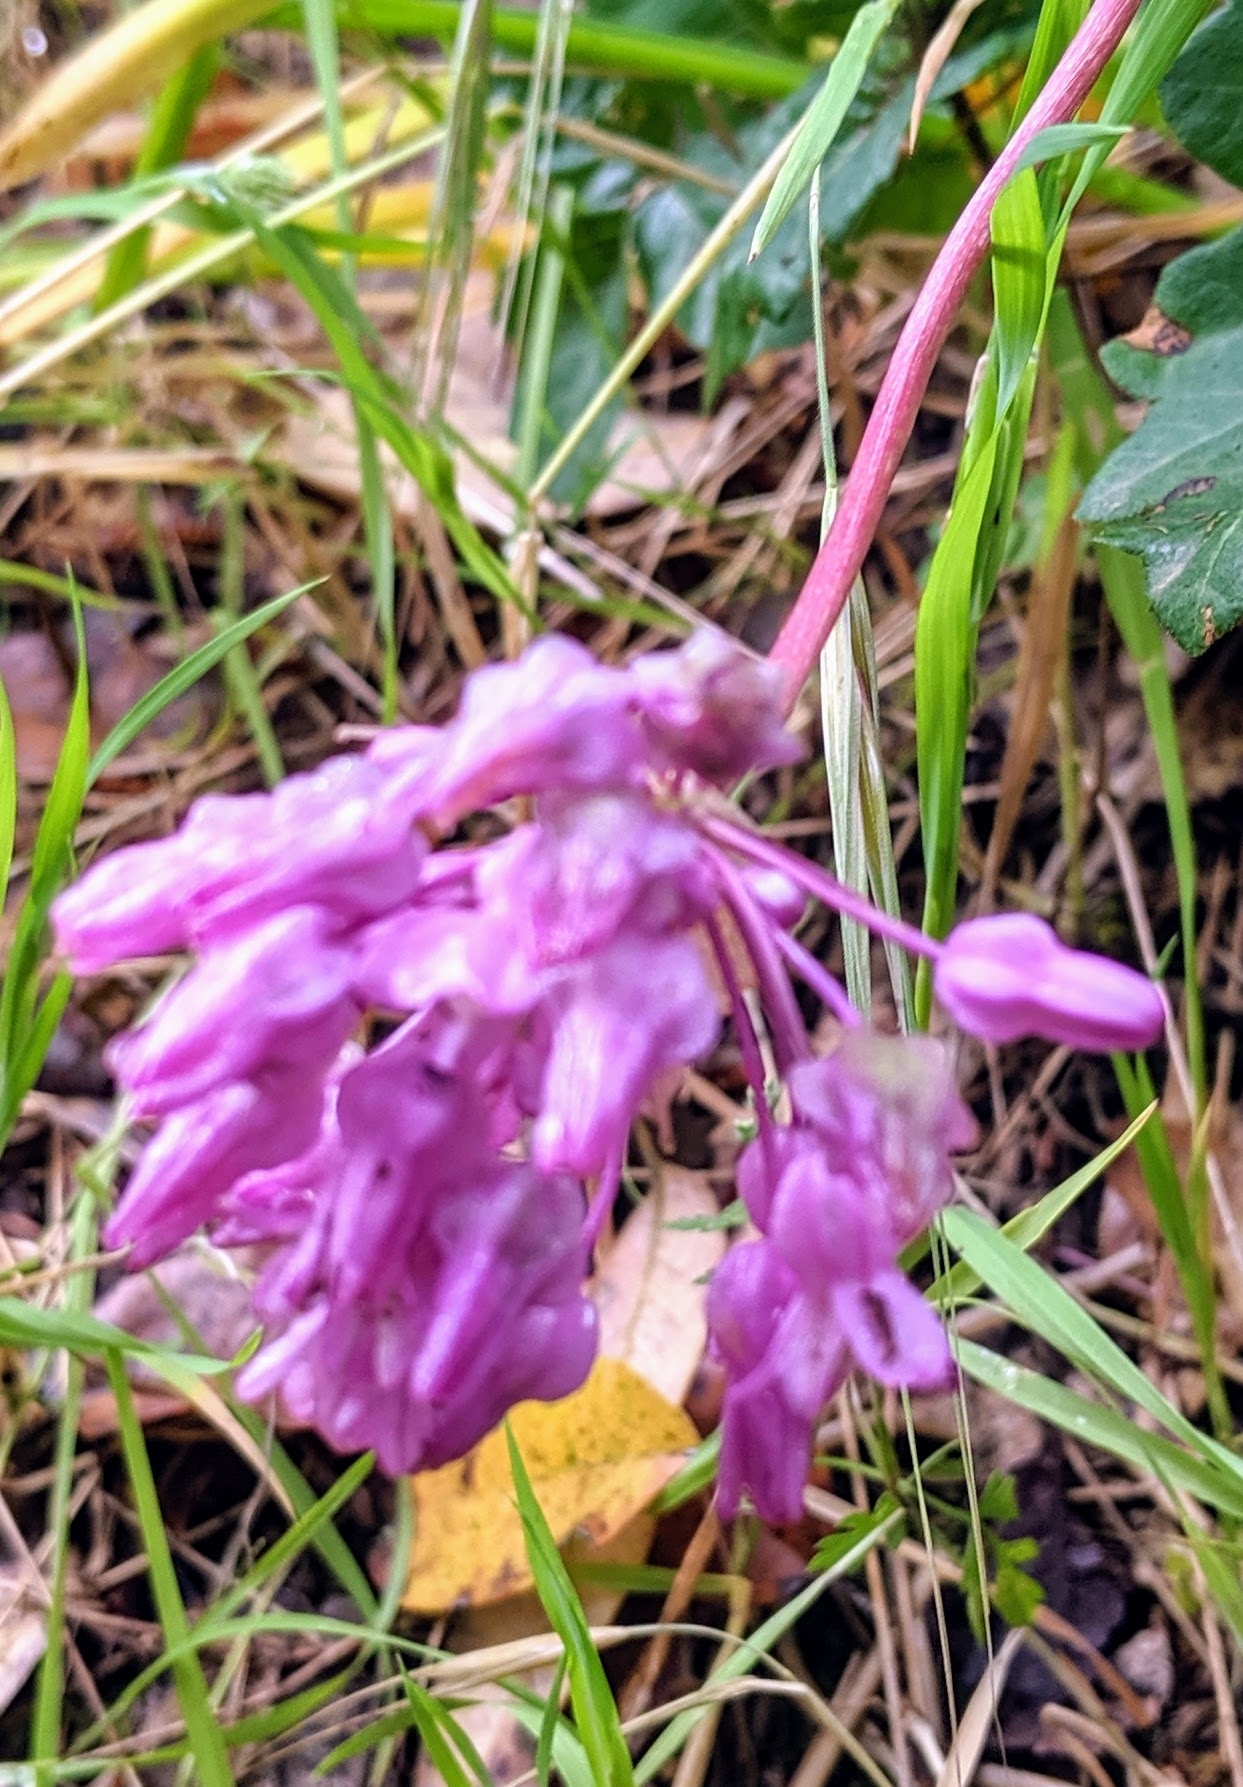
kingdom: Plantae
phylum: Tracheophyta
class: Liliopsida
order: Asparagales
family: Asparagaceae
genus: Dichelostemma
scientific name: Dichelostemma volubile
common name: Trining brodiaea
